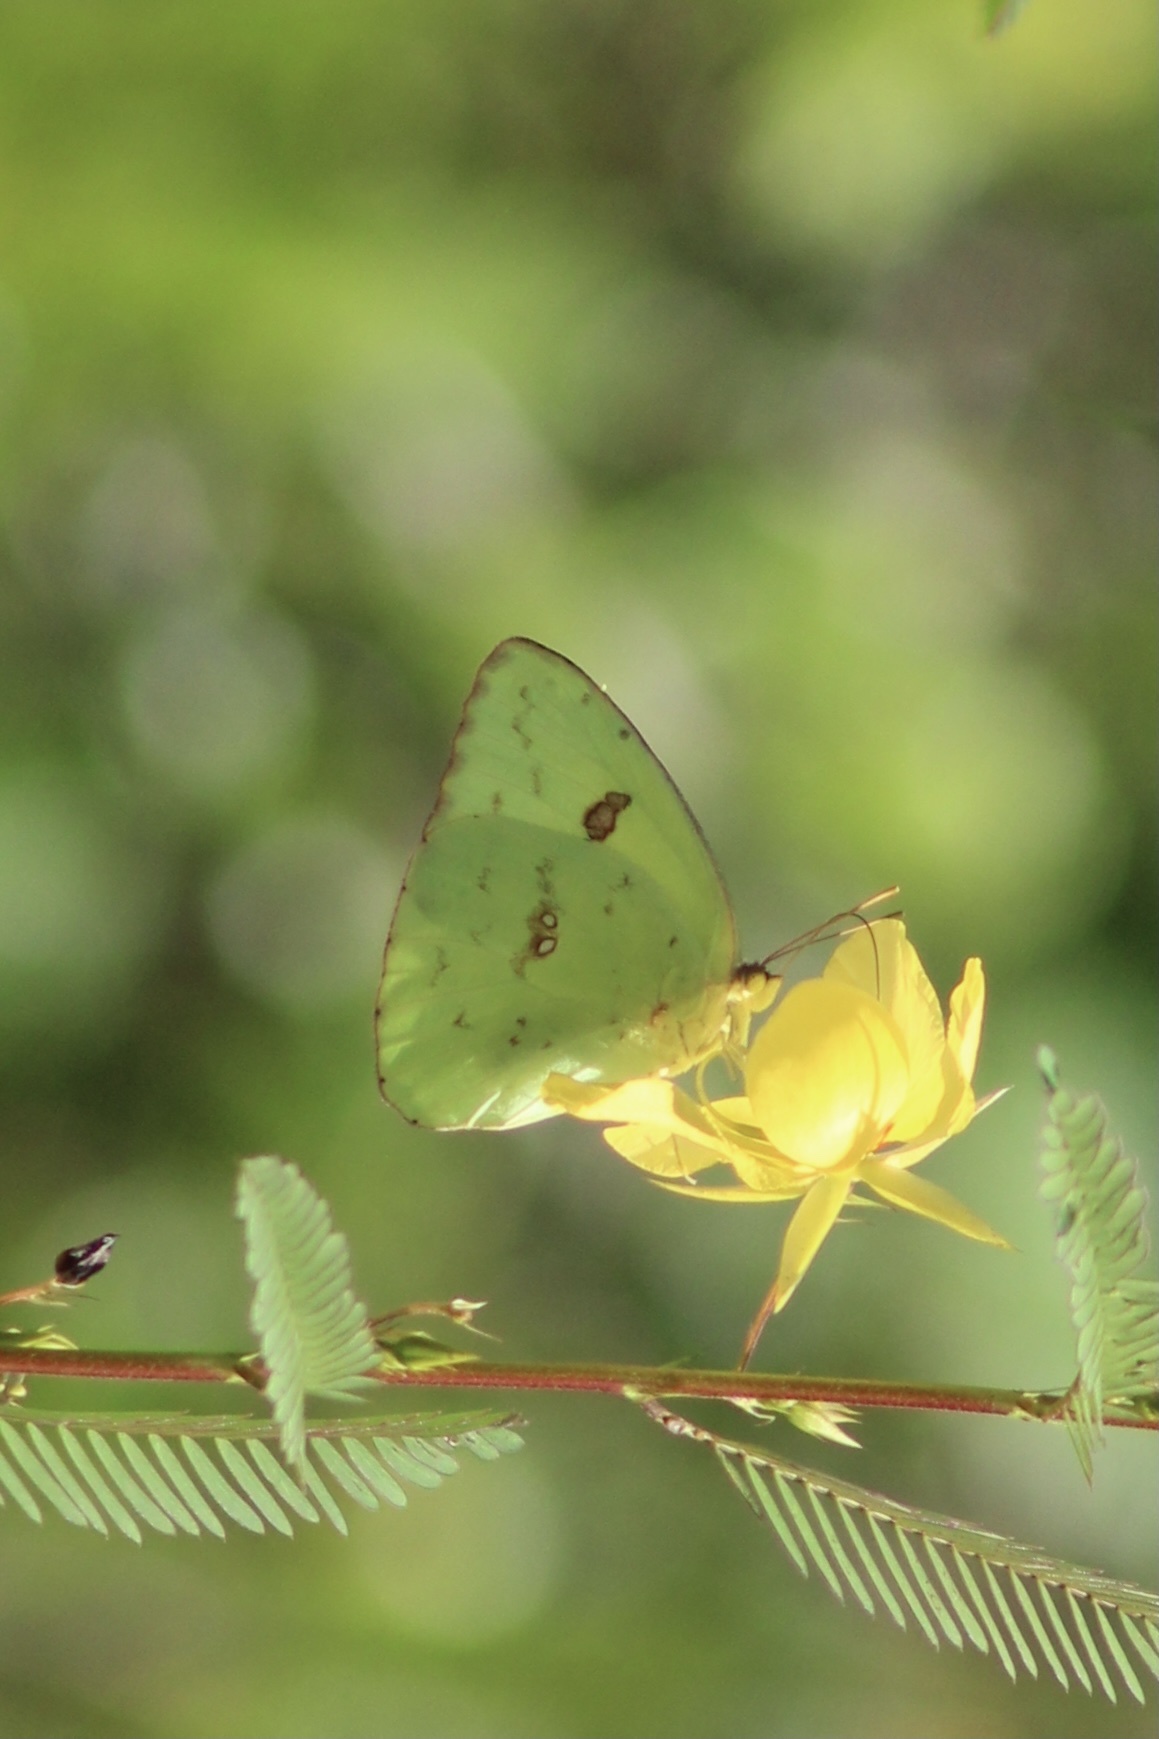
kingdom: Animalia
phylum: Arthropoda
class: Insecta
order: Lepidoptera
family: Pieridae
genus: Phoebis
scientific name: Phoebis sennae
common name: Cloudless sulphur
